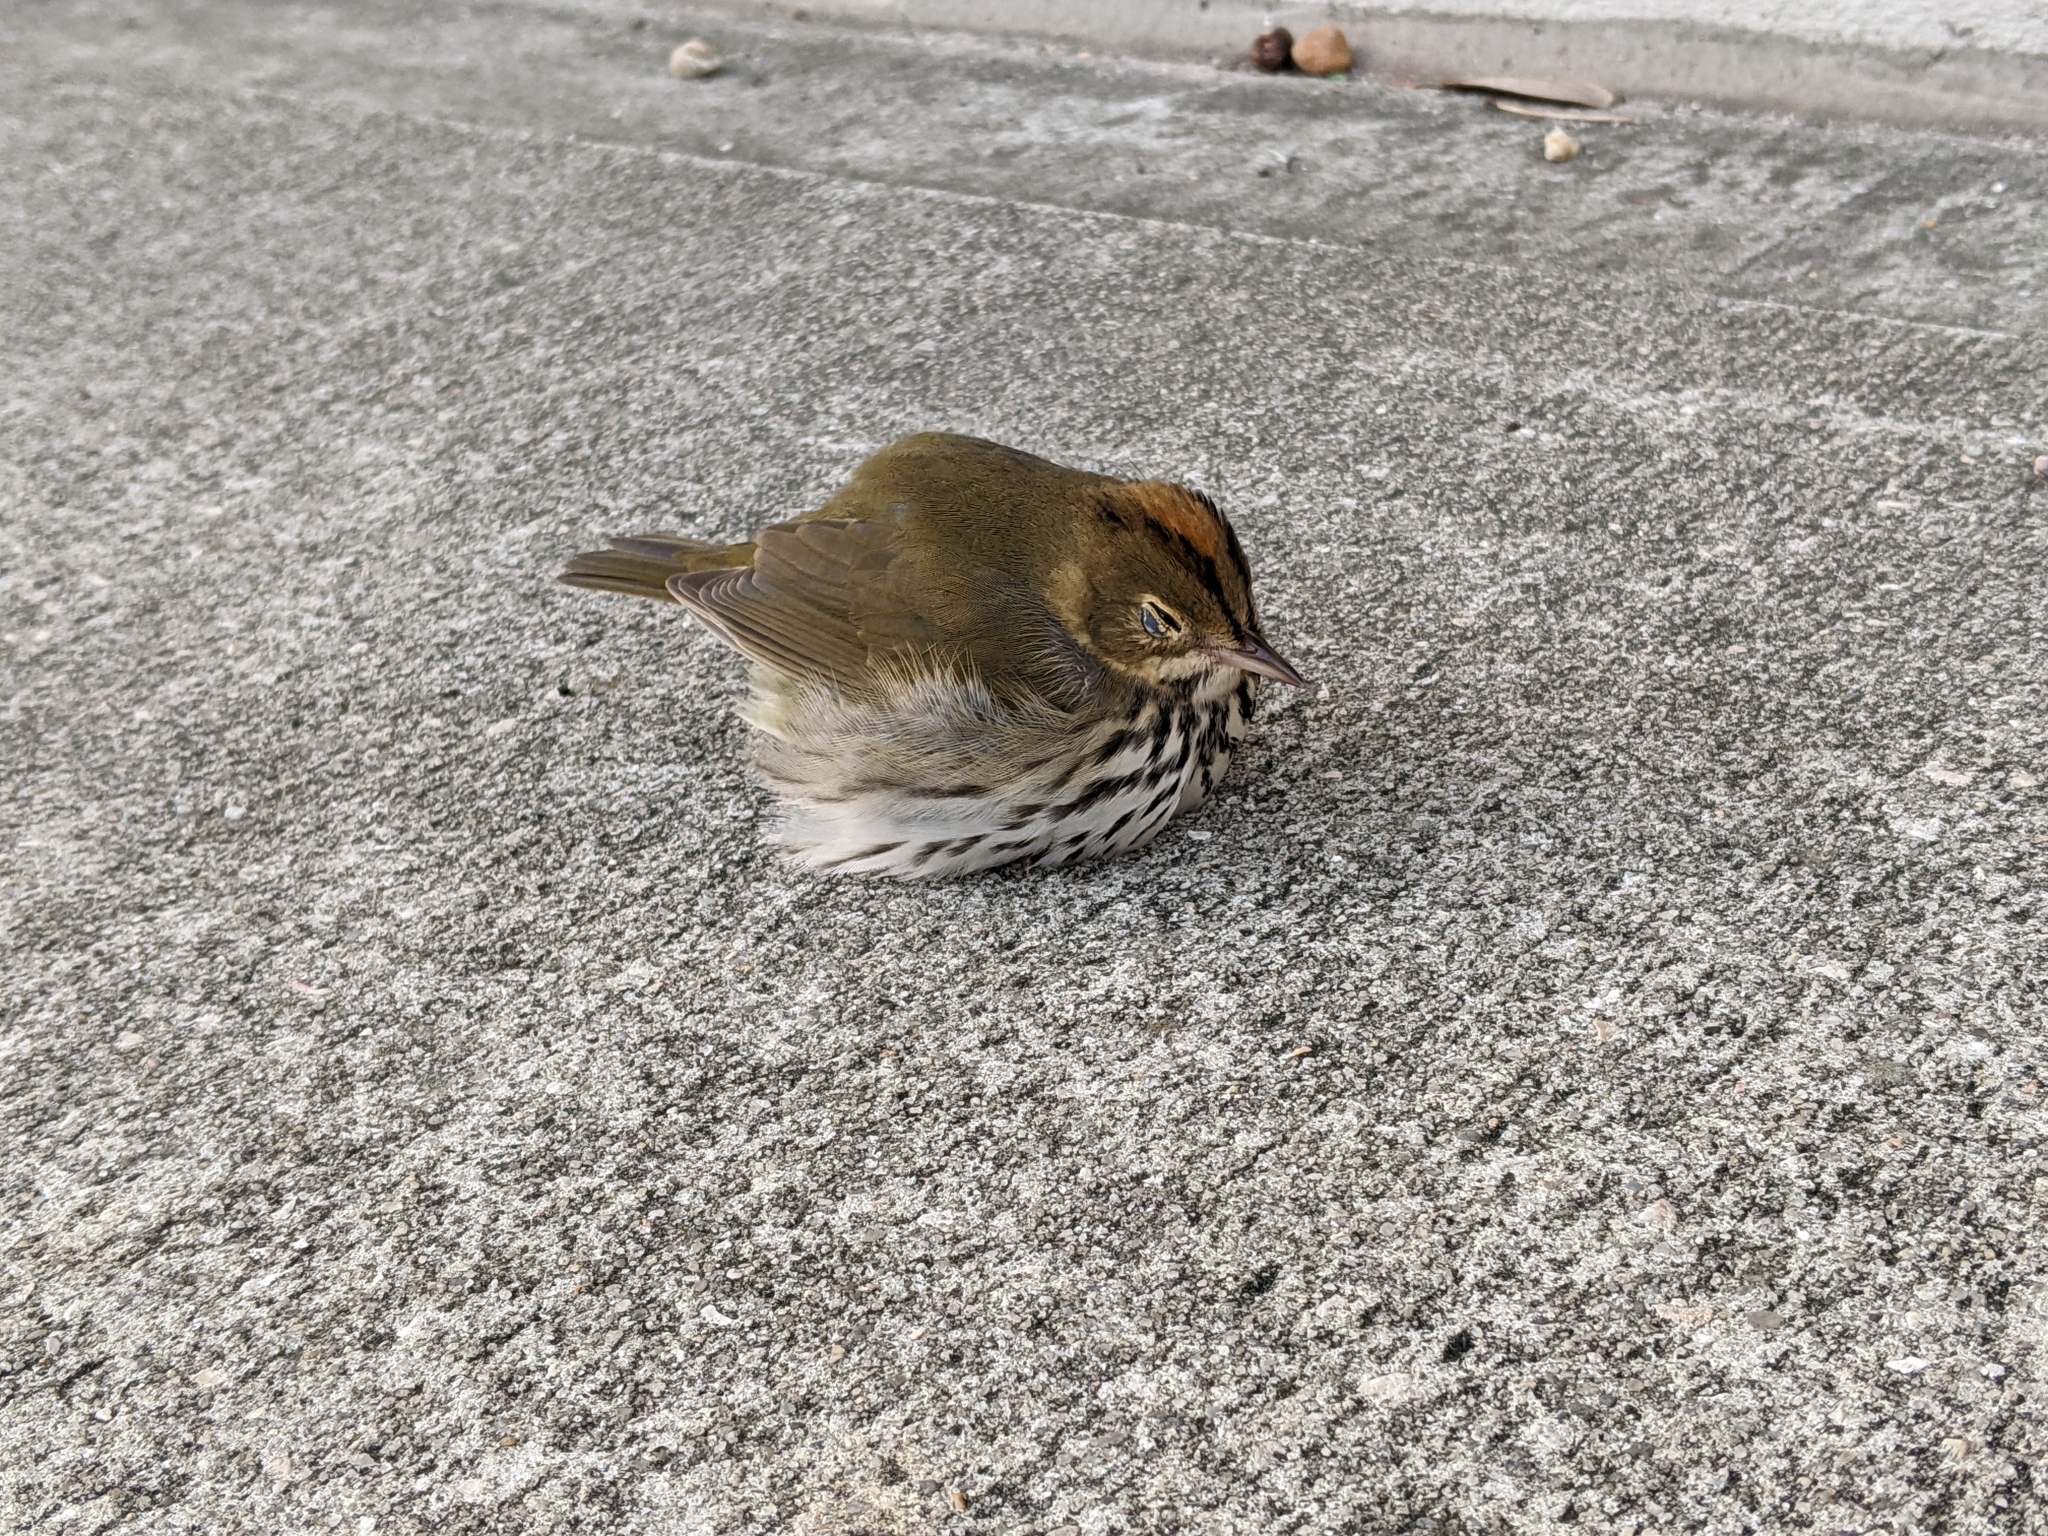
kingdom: Animalia
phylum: Chordata
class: Aves
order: Passeriformes
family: Parulidae
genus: Seiurus
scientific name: Seiurus aurocapilla
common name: Ovenbird
